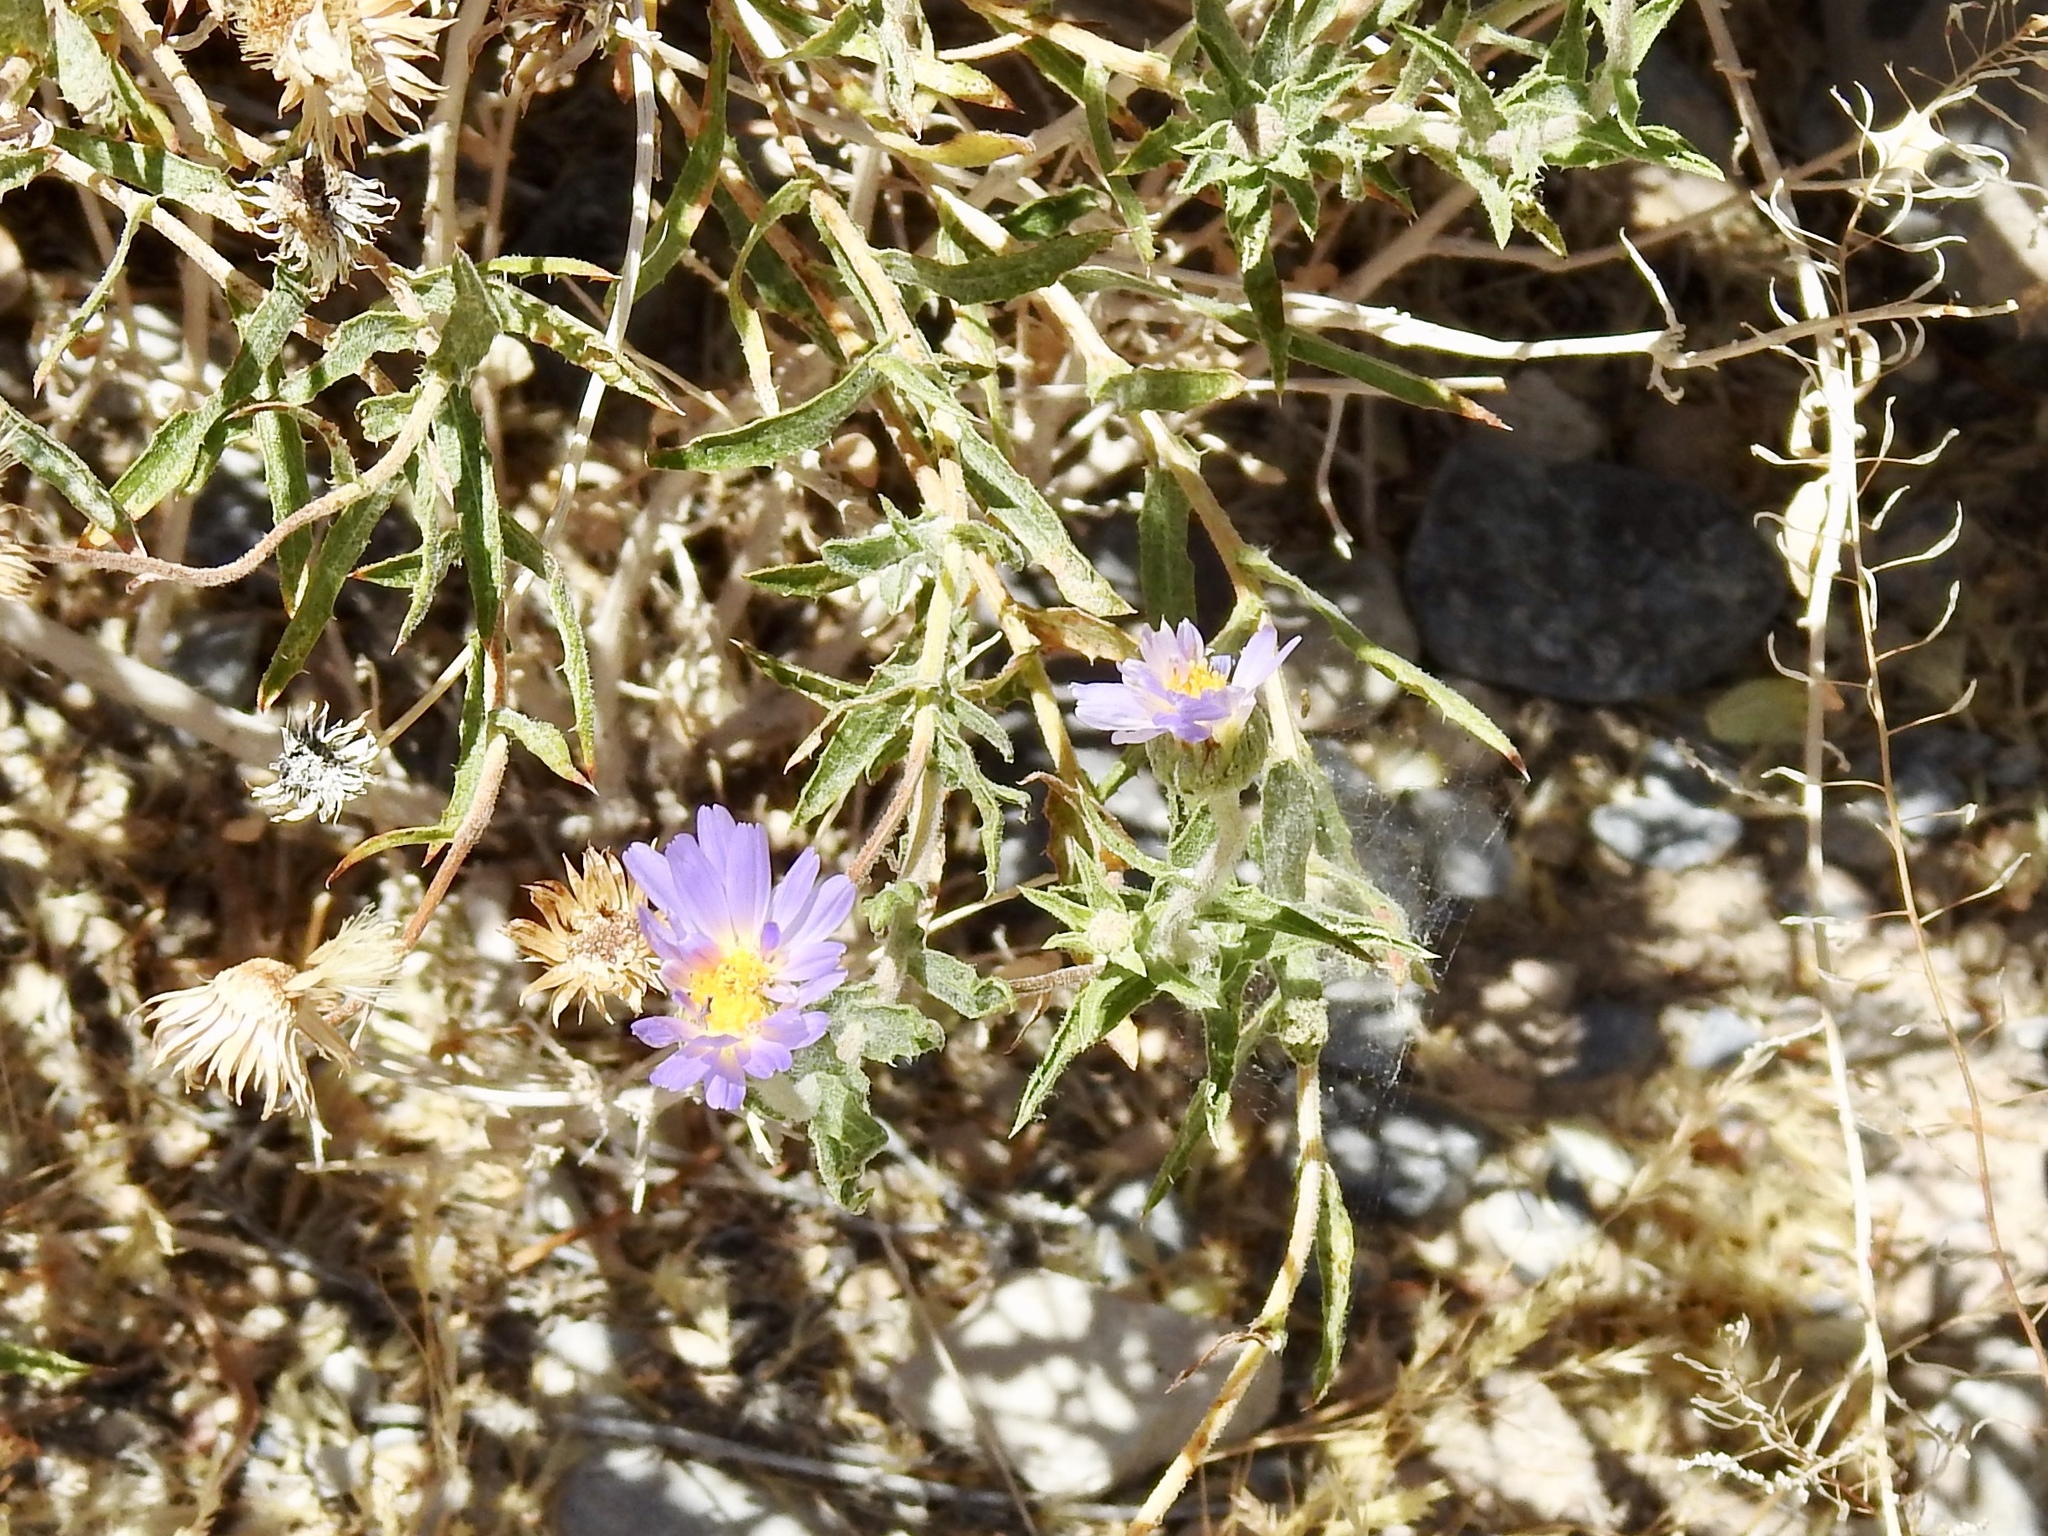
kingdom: Plantae
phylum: Tracheophyta
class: Magnoliopsida
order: Asterales
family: Asteraceae
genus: Dieteria
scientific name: Dieteria canescens
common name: Hoary-aster
